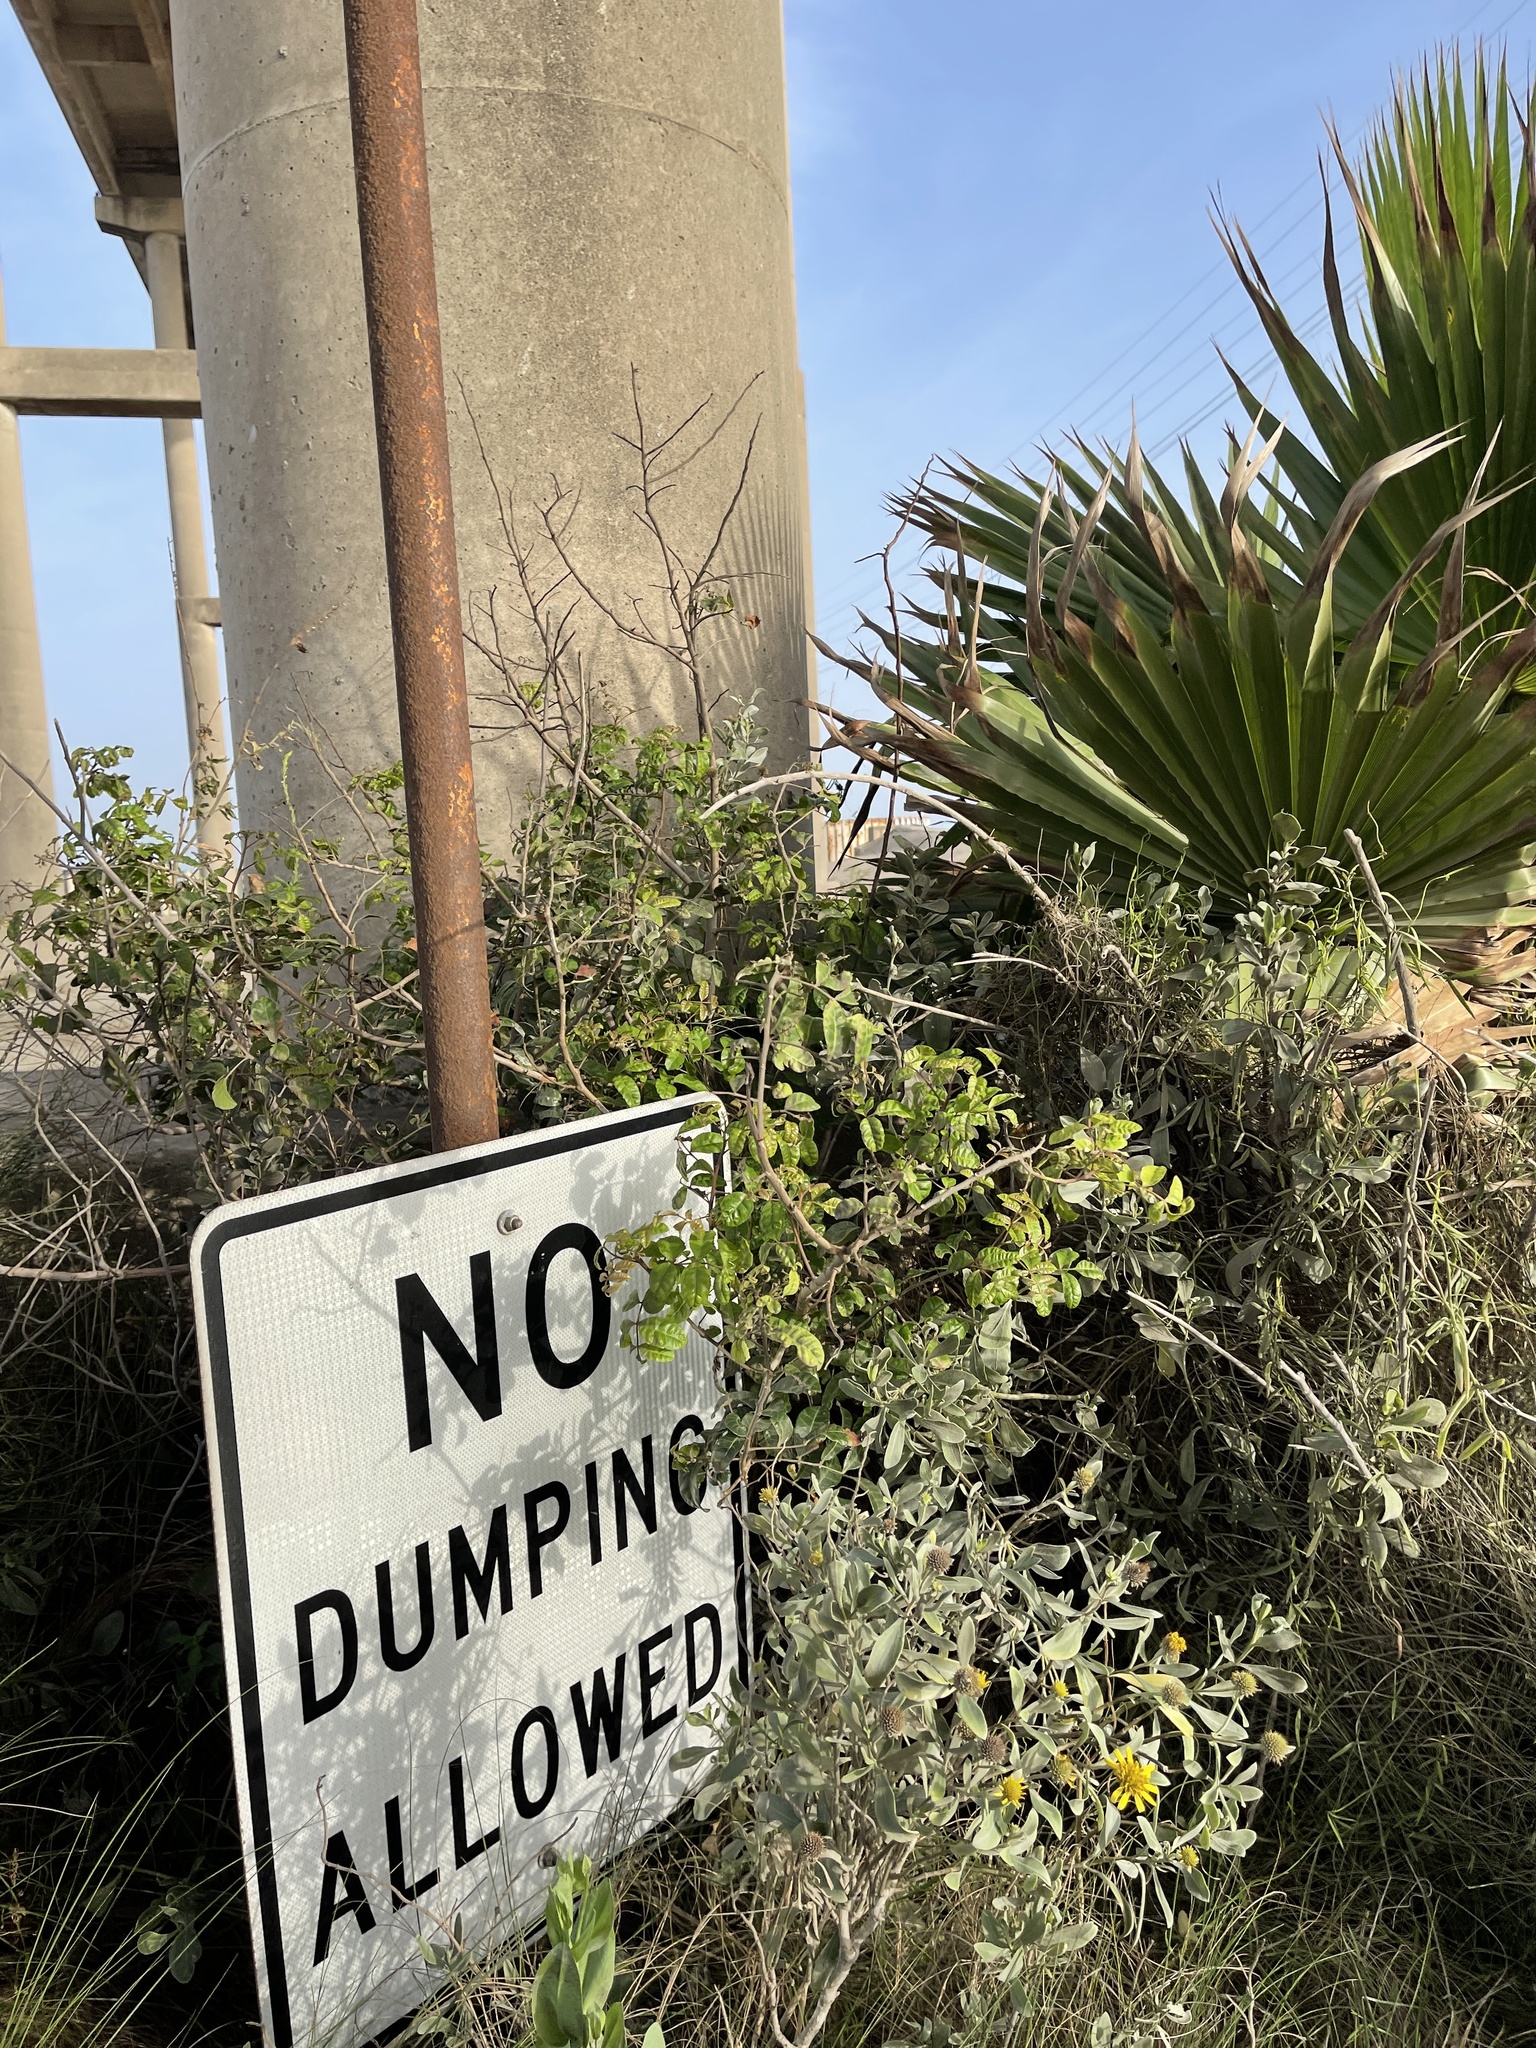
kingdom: Plantae
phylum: Tracheophyta
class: Magnoliopsida
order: Sapindales
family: Anacardiaceae
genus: Schinus
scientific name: Schinus terebinthifolia
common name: Brazilian peppertree
